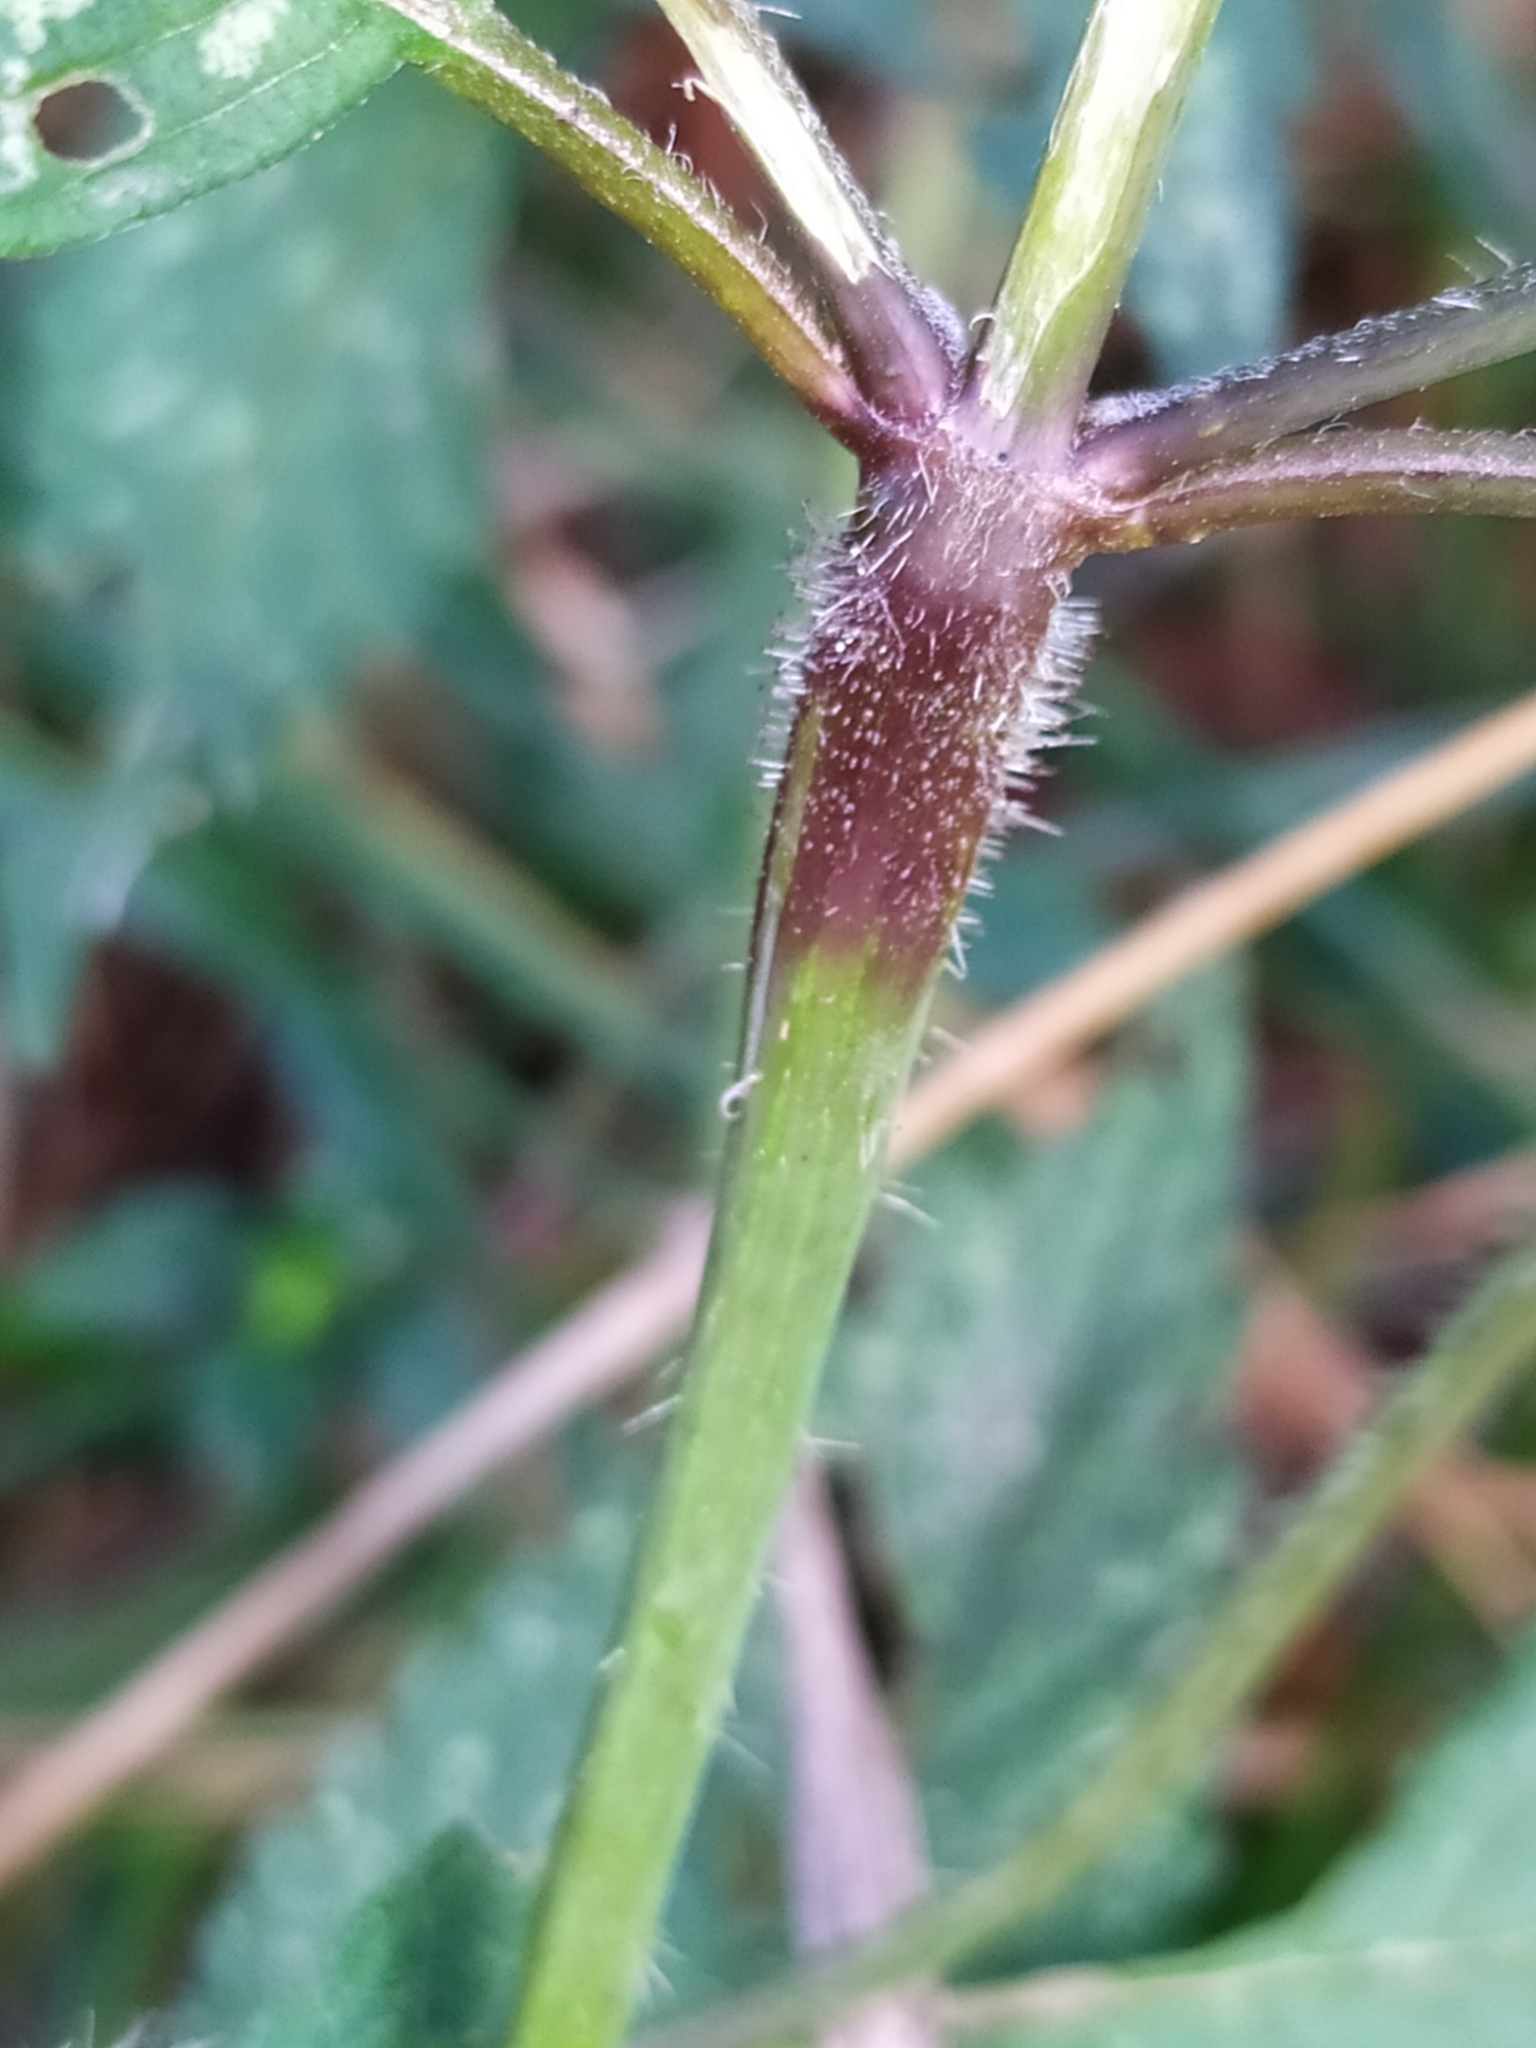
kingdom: Plantae
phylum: Tracheophyta
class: Magnoliopsida
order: Lamiales
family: Lamiaceae
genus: Galeopsis
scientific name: Galeopsis tetrahit
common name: Common hemp-nettle
